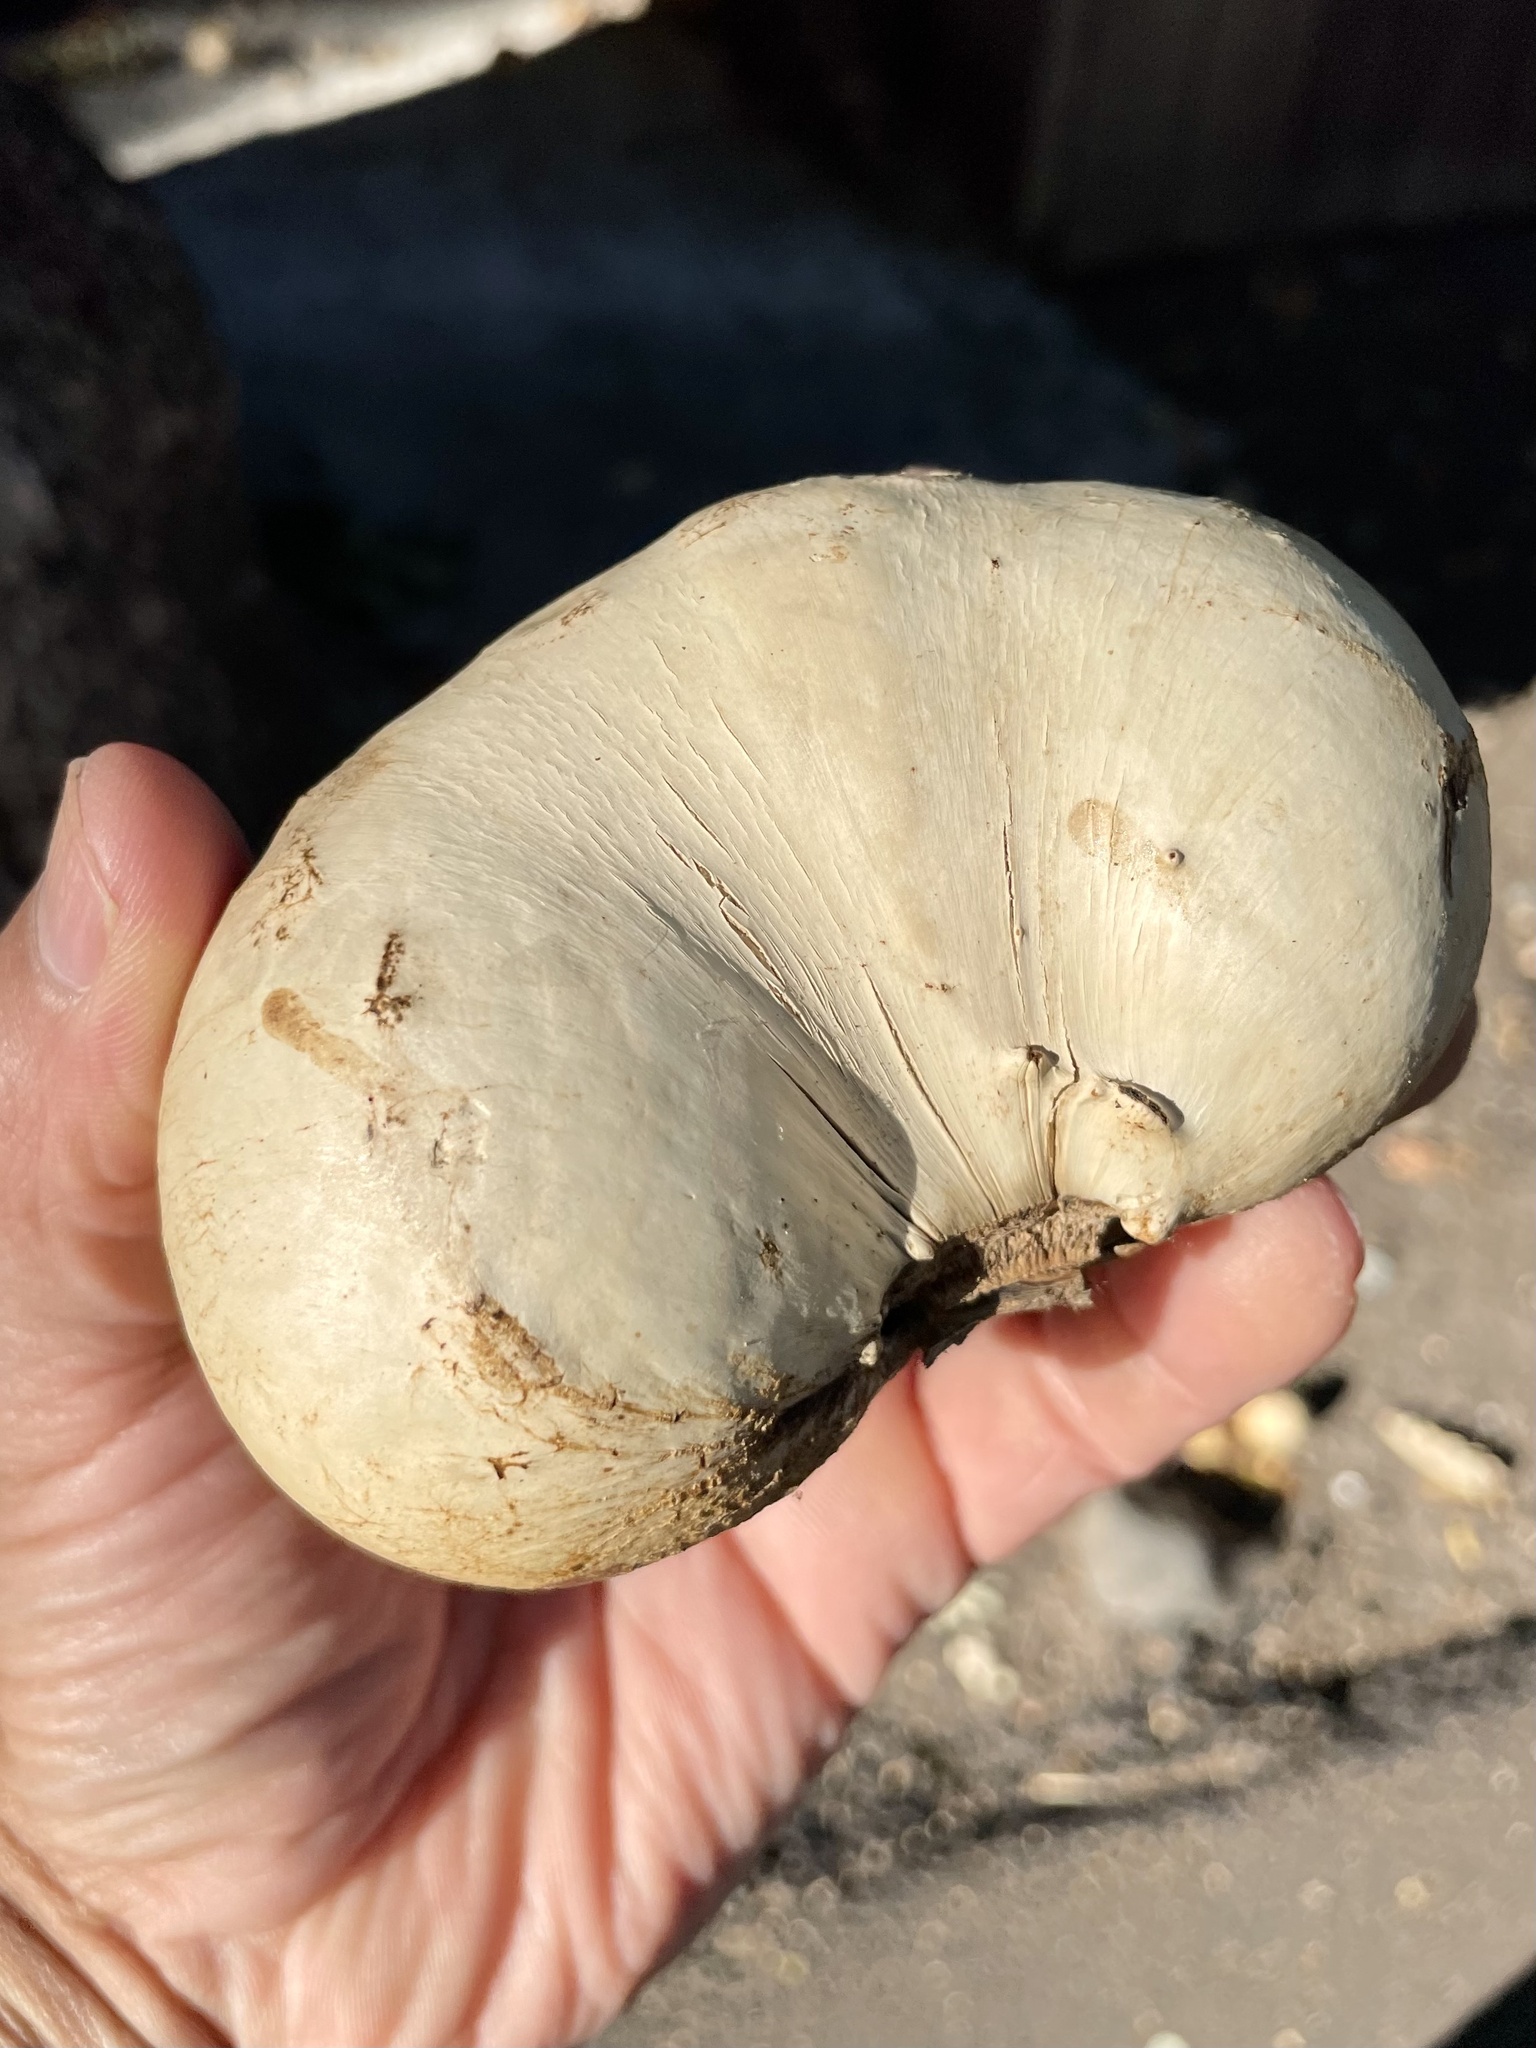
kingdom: Animalia
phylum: Arthropoda
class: Insecta
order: Hymenoptera
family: Cynipidae
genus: Andricus
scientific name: Andricus quercuscalifornicus
